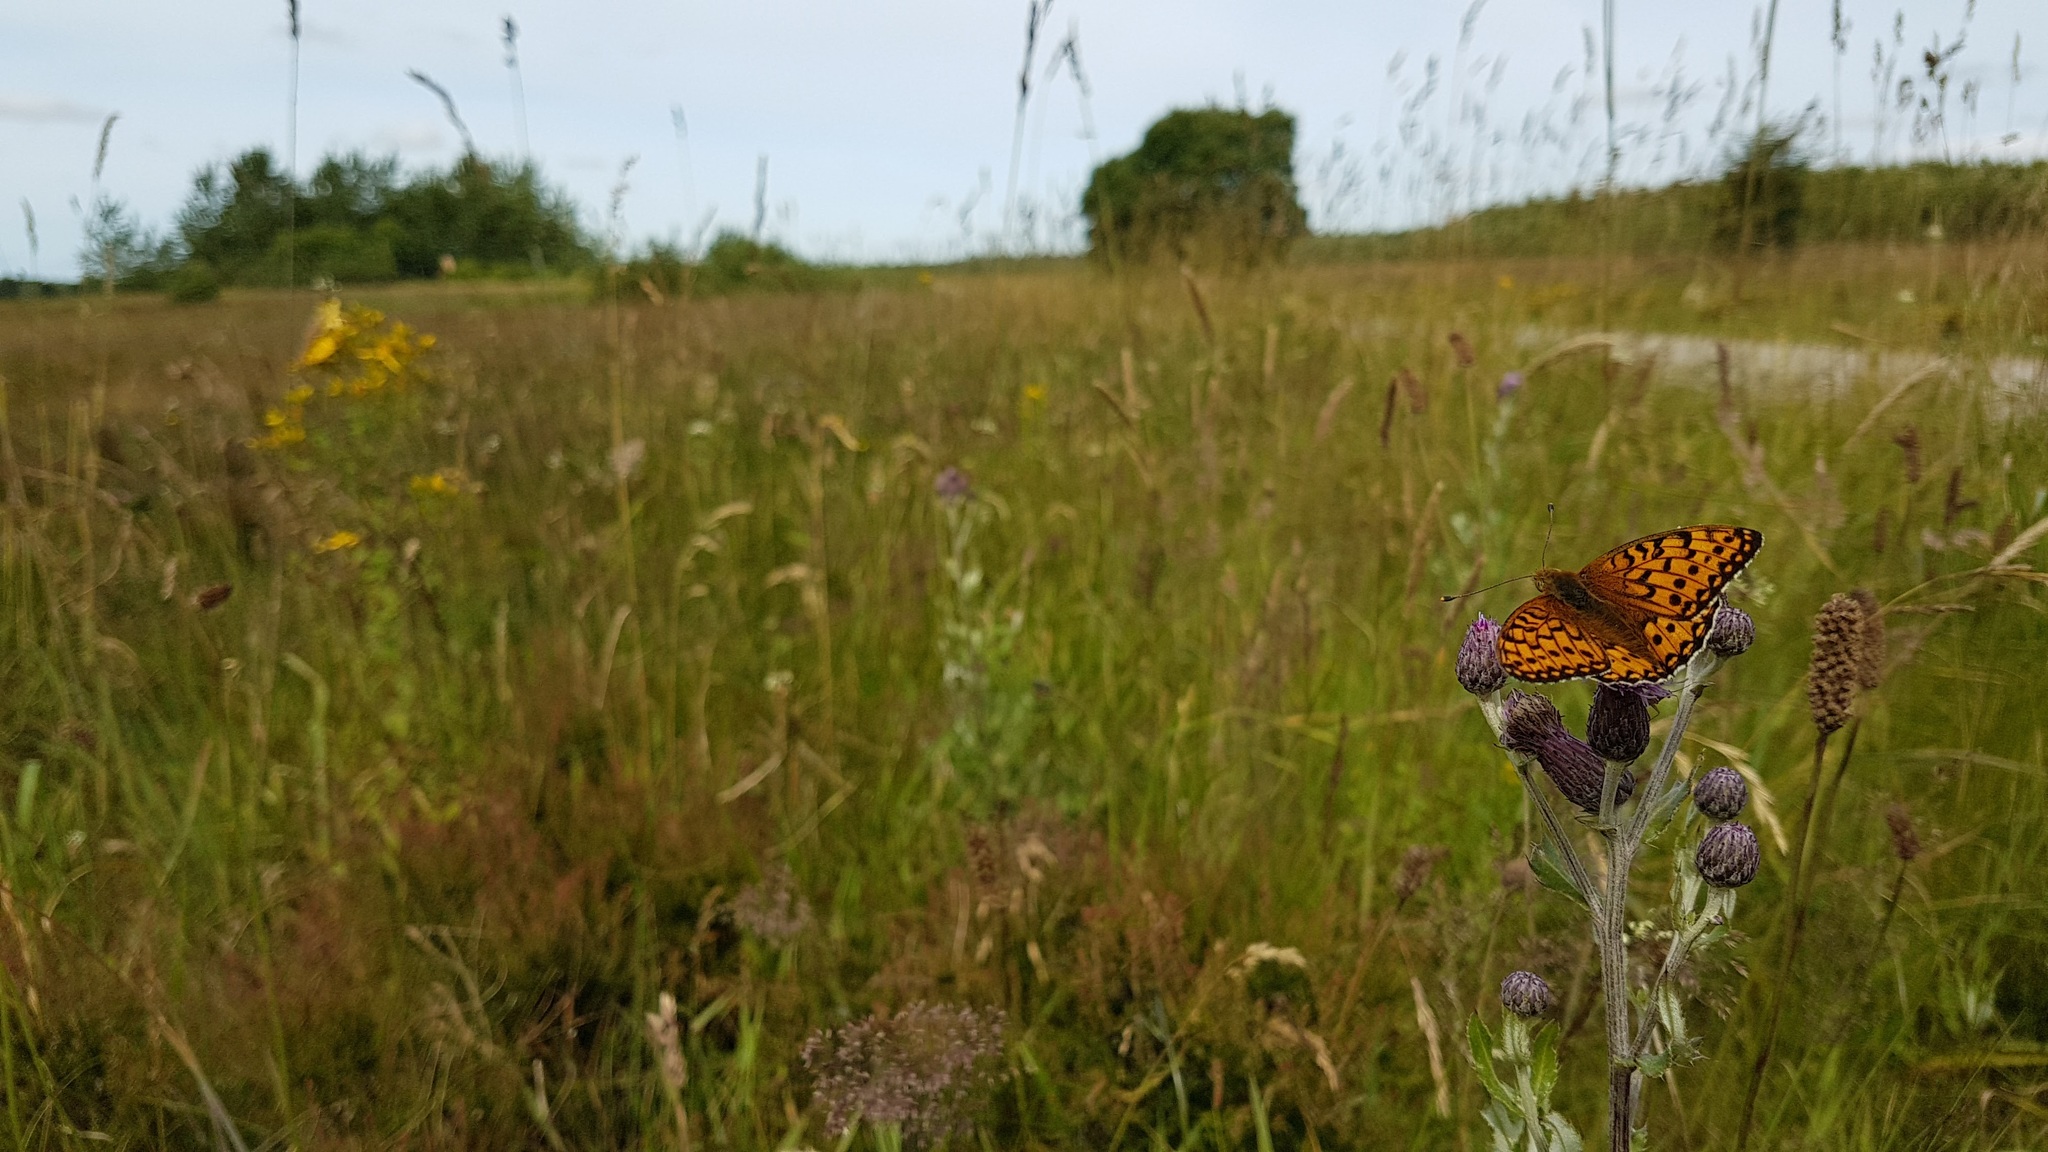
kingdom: Animalia
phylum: Arthropoda
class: Insecta
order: Lepidoptera
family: Nymphalidae
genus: Speyeria
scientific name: Speyeria aglaja
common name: Dark green fritillary
